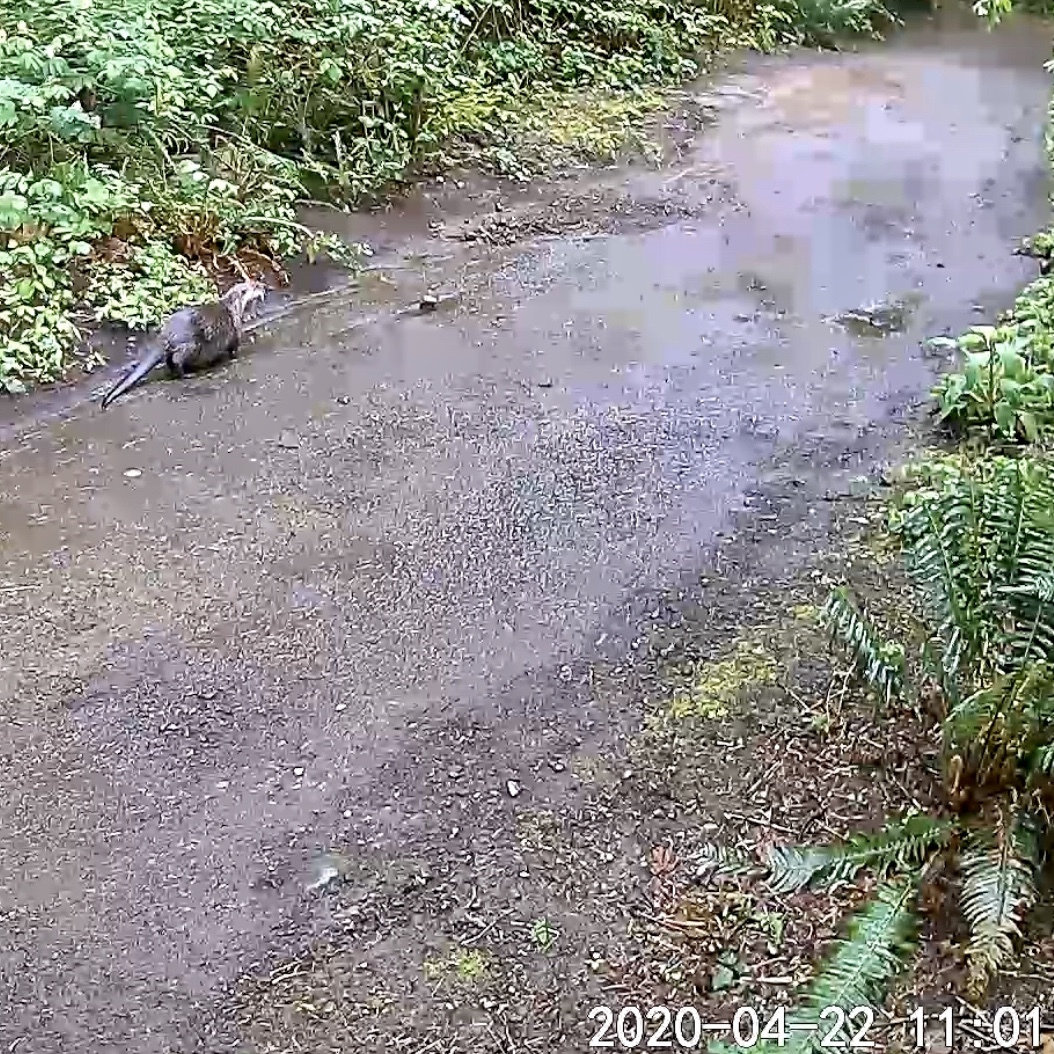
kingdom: Animalia
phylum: Chordata
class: Mammalia
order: Carnivora
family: Mustelidae
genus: Lontra
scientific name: Lontra canadensis
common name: North american river otter
